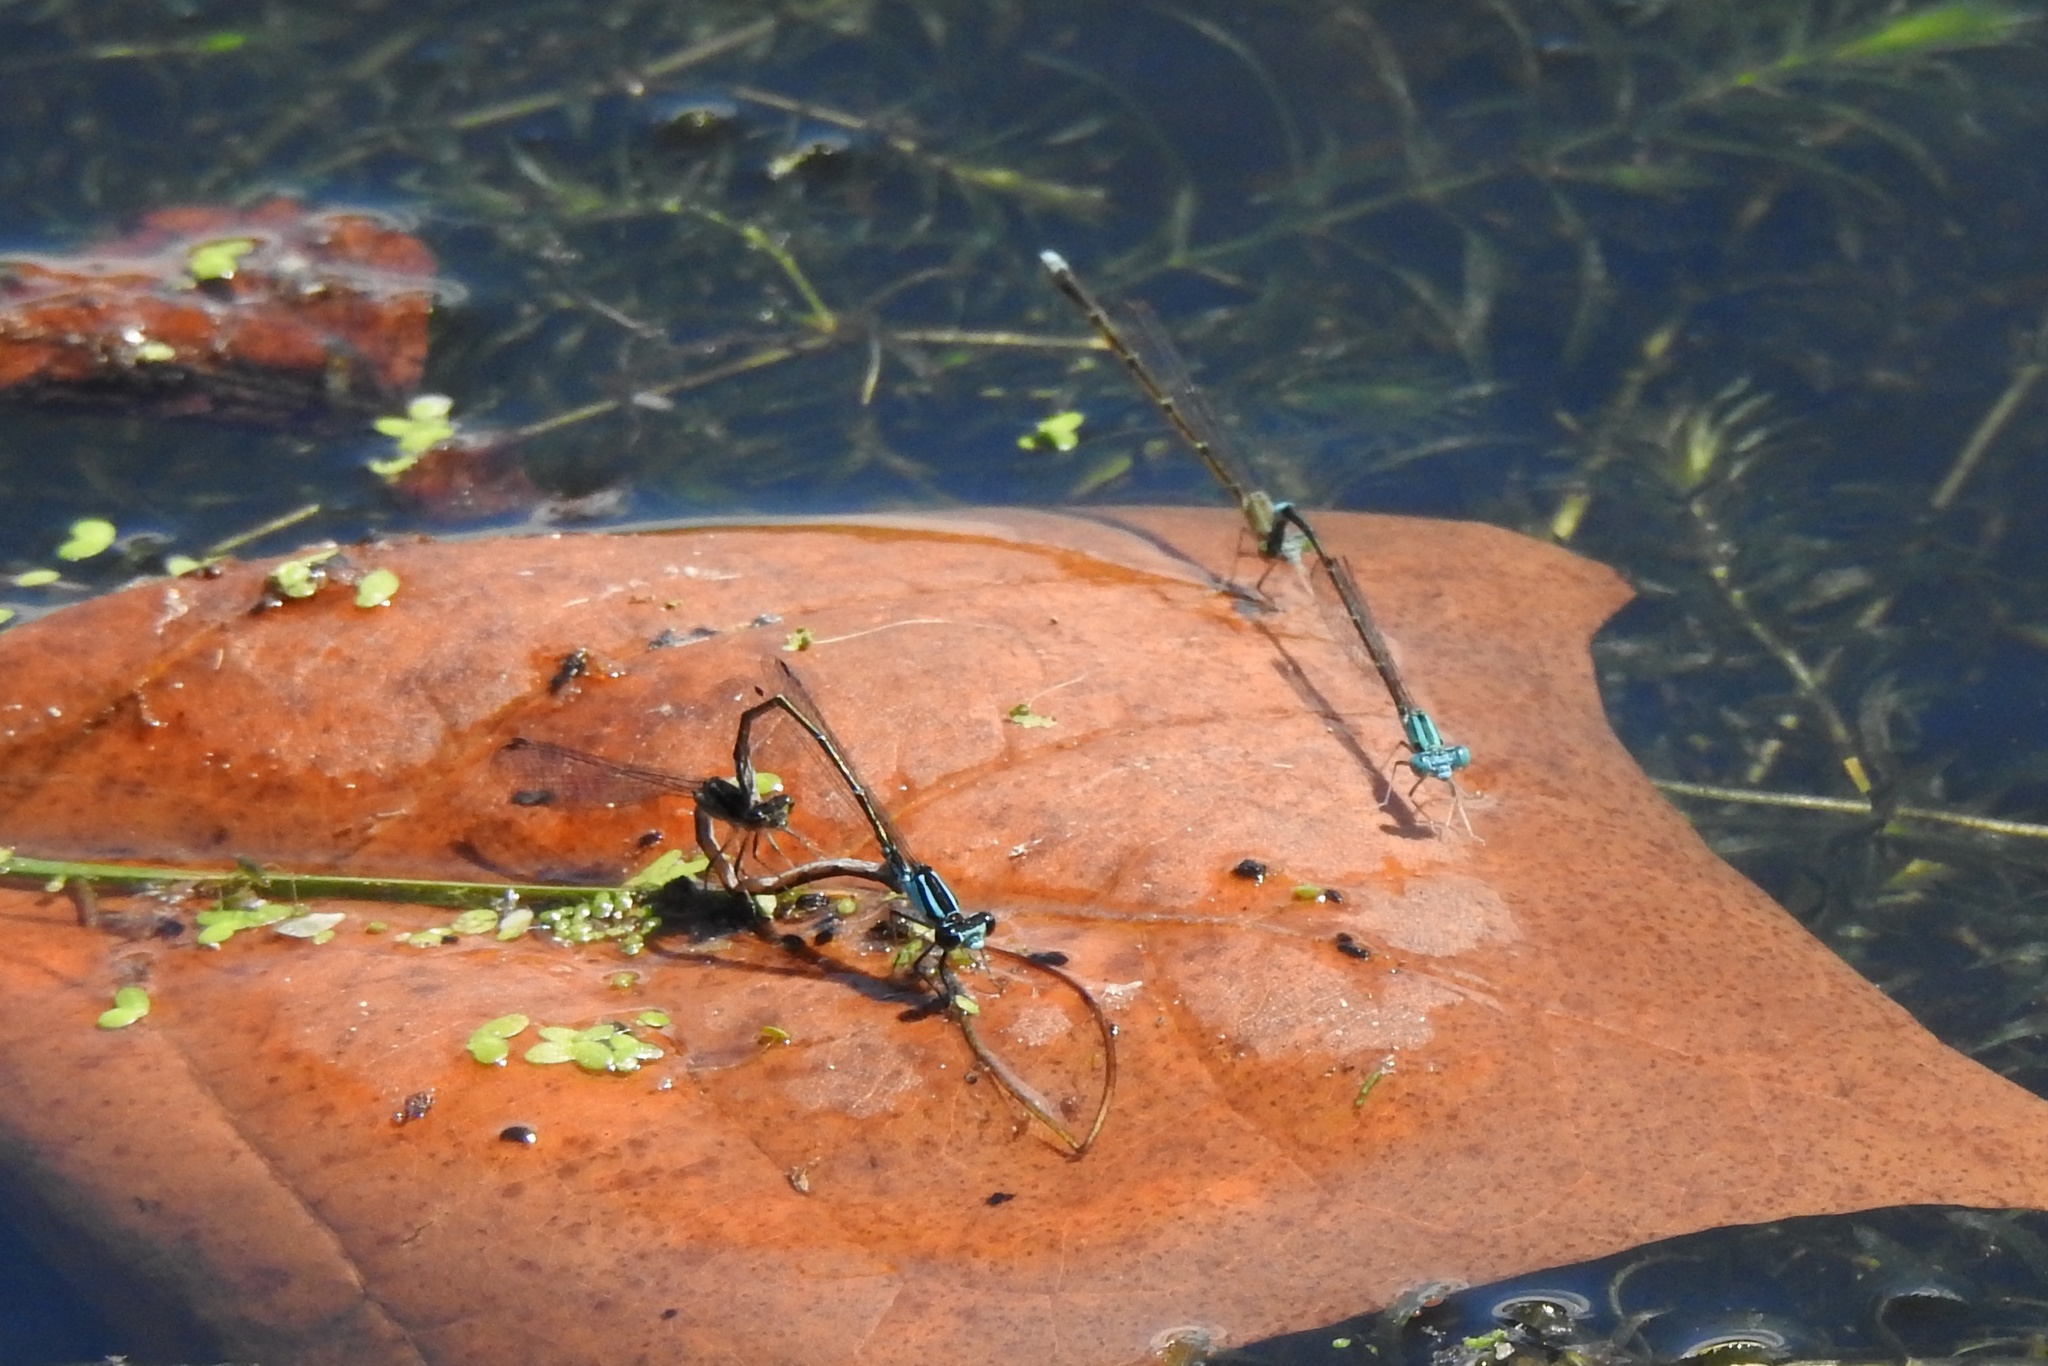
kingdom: Animalia
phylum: Arthropoda
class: Insecta
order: Odonata
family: Coenagrionidae
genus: Enallagma
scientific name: Enallagma geminatum
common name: Skimming bluet
